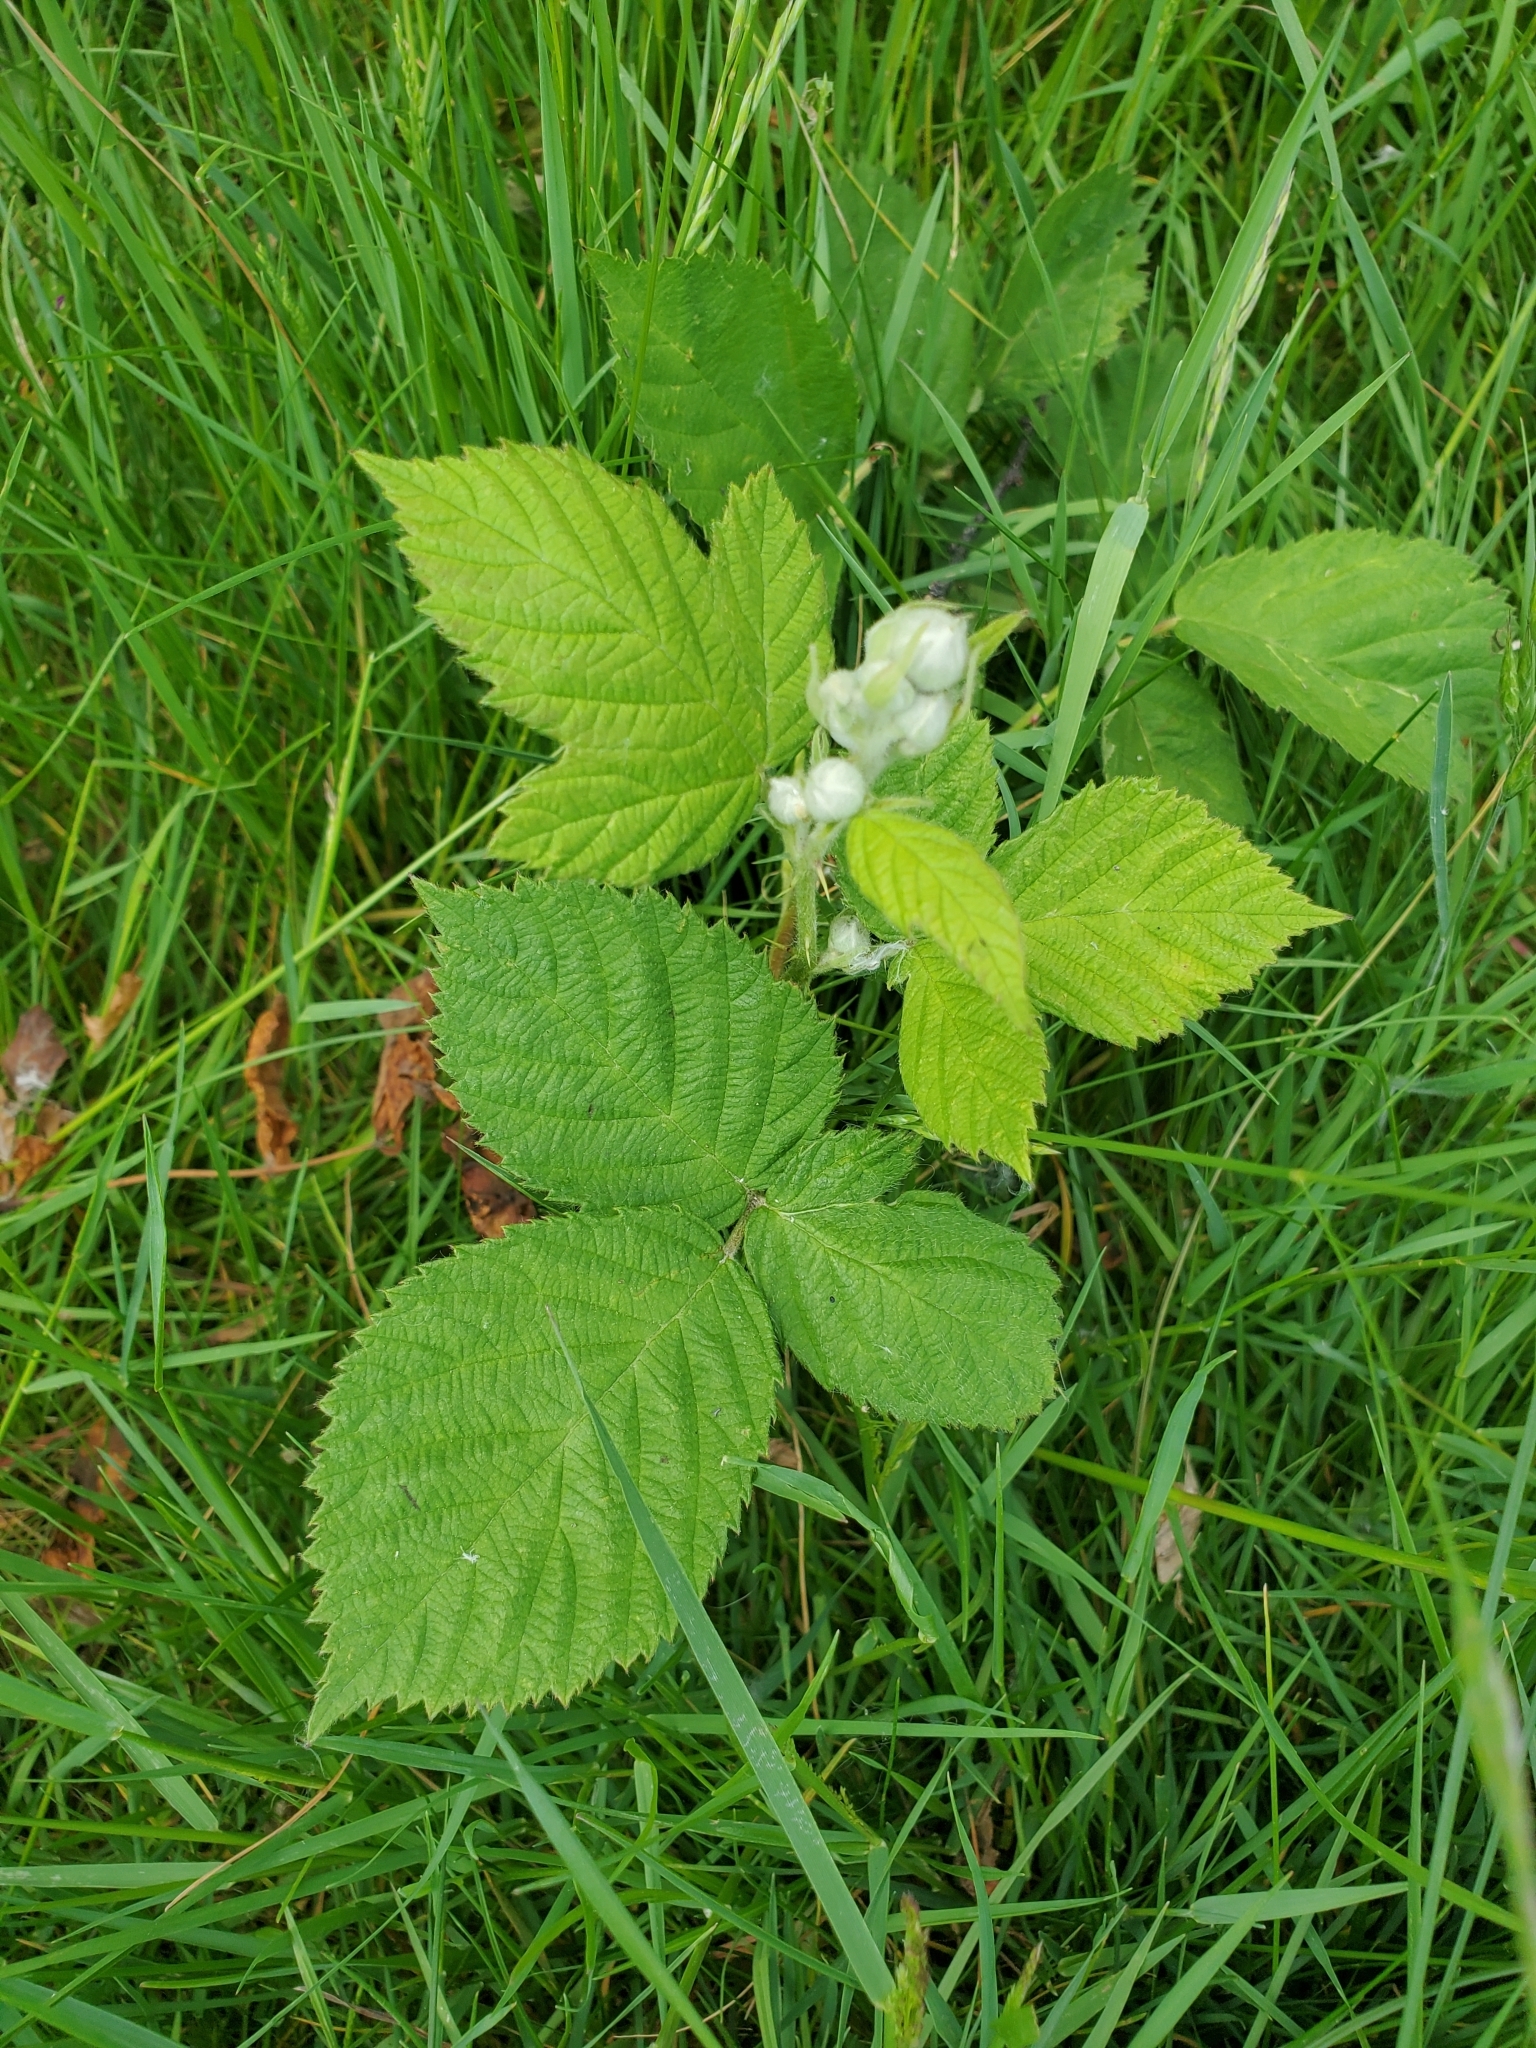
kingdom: Plantae
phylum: Tracheophyta
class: Magnoliopsida
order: Rosales
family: Rosaceae
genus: Rubus
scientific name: Rubus bifrons
